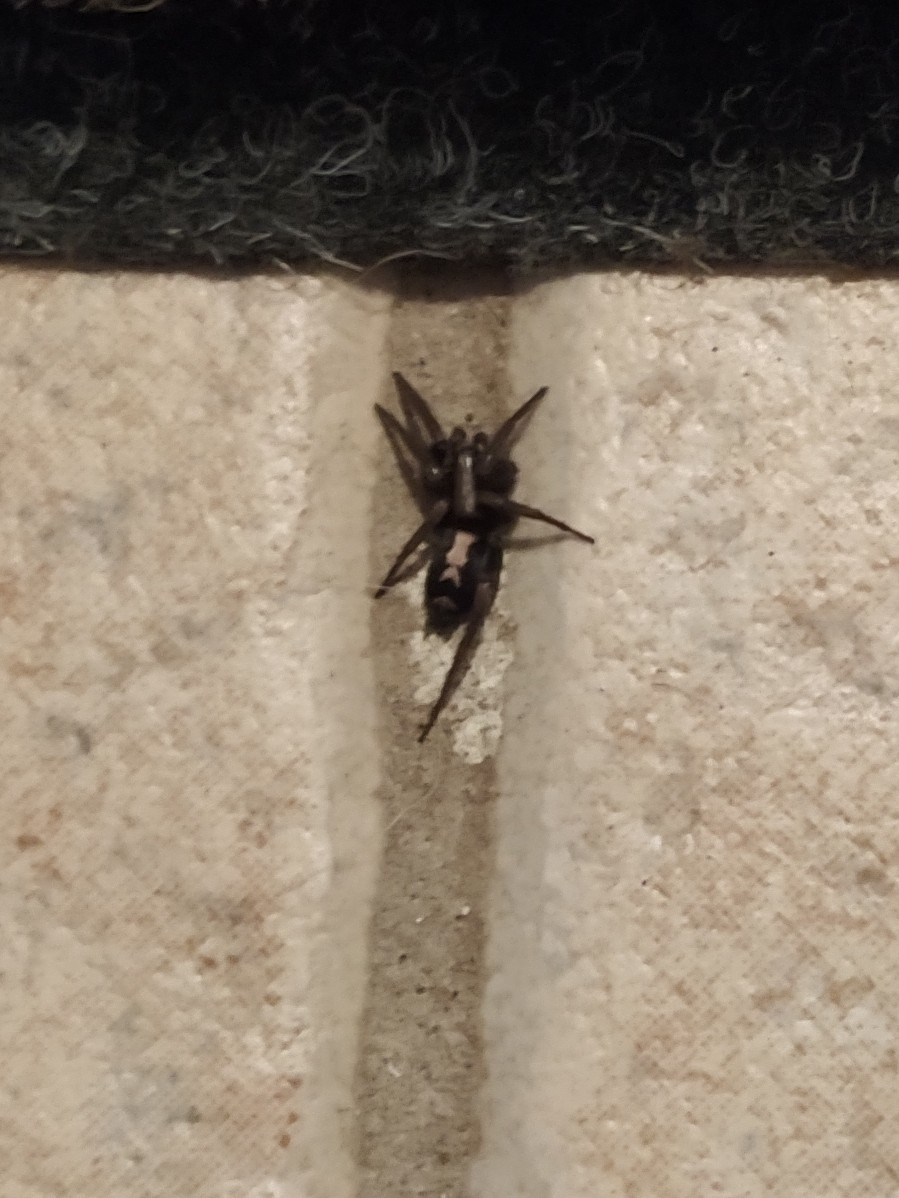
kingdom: Animalia
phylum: Arthropoda
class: Arachnida
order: Araneae
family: Gnaphosidae
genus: Herpyllus
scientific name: Herpyllus ecclesiasticus
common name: Eastern parson spider
